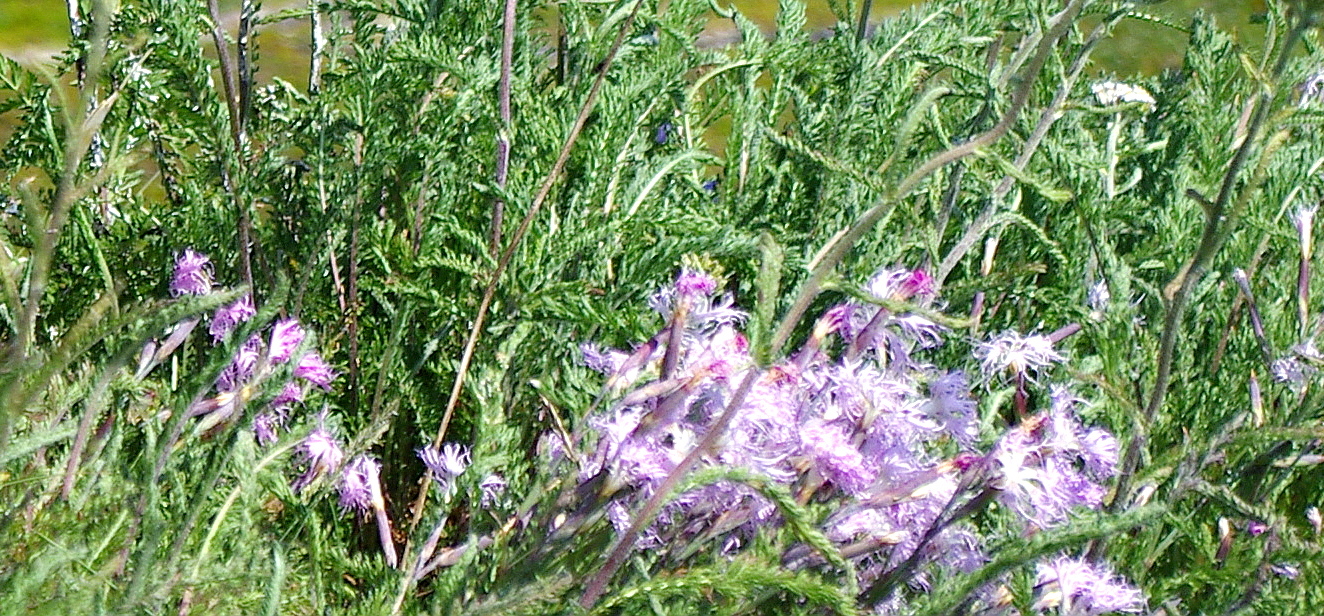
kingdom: Plantae
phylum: Tracheophyta
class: Magnoliopsida
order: Caryophyllales
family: Caryophyllaceae
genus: Dianthus
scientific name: Dianthus superbus
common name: Fringed pink
